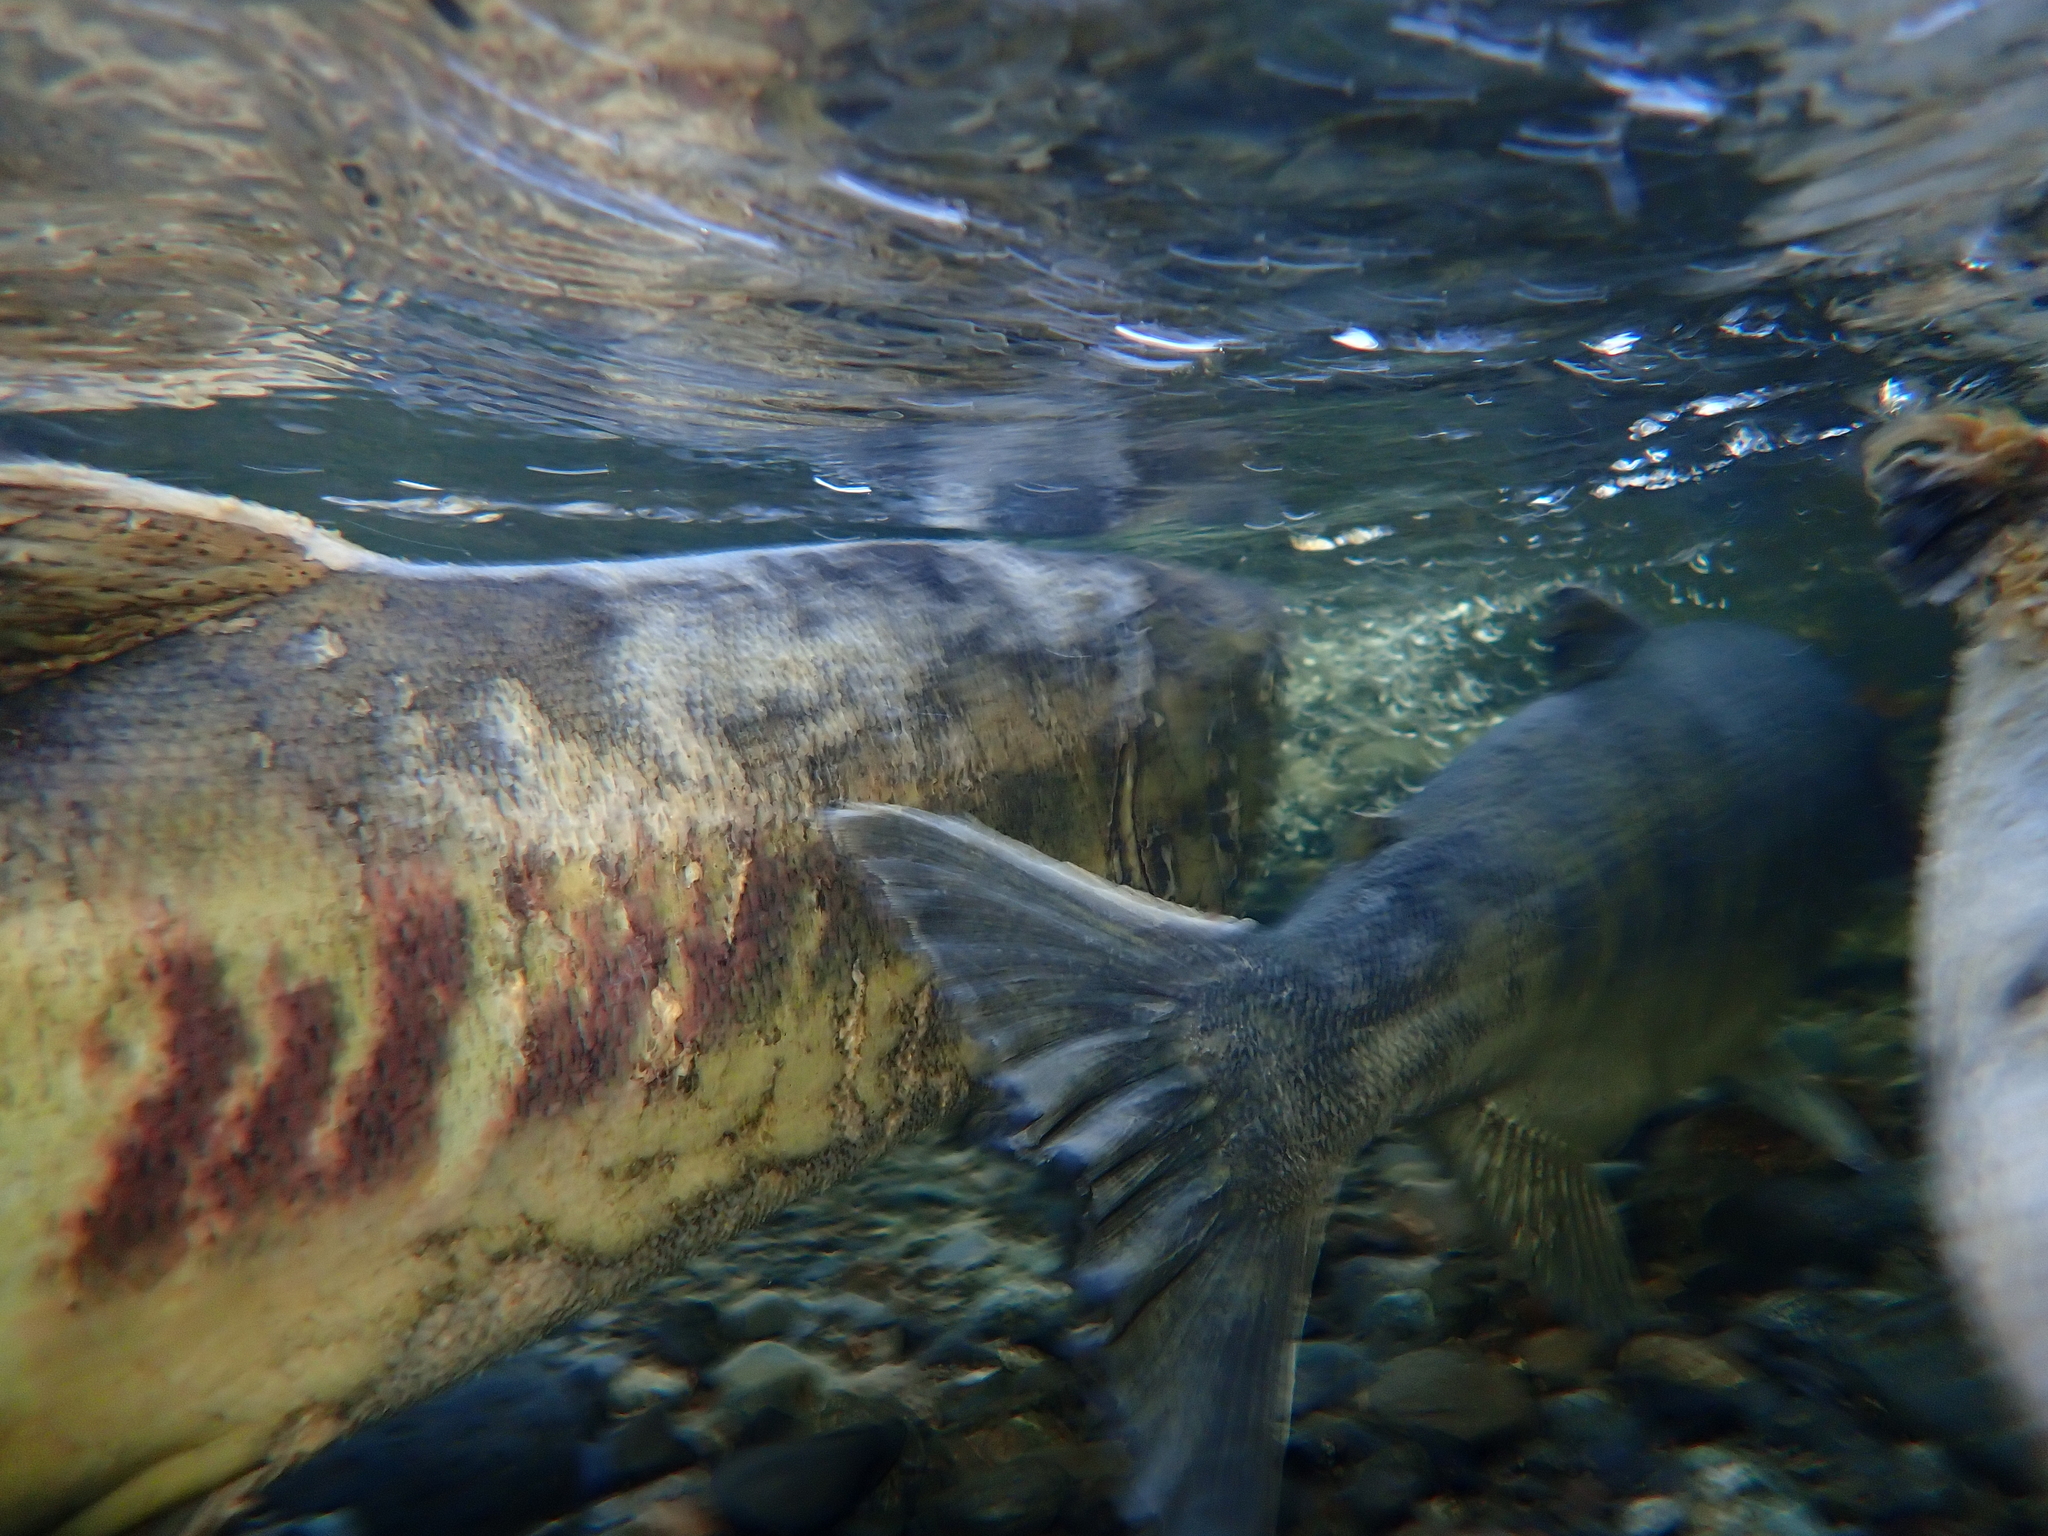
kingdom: Animalia
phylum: Chordata
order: Salmoniformes
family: Salmonidae
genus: Oncorhynchus
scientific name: Oncorhynchus keta
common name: Chum salmon
